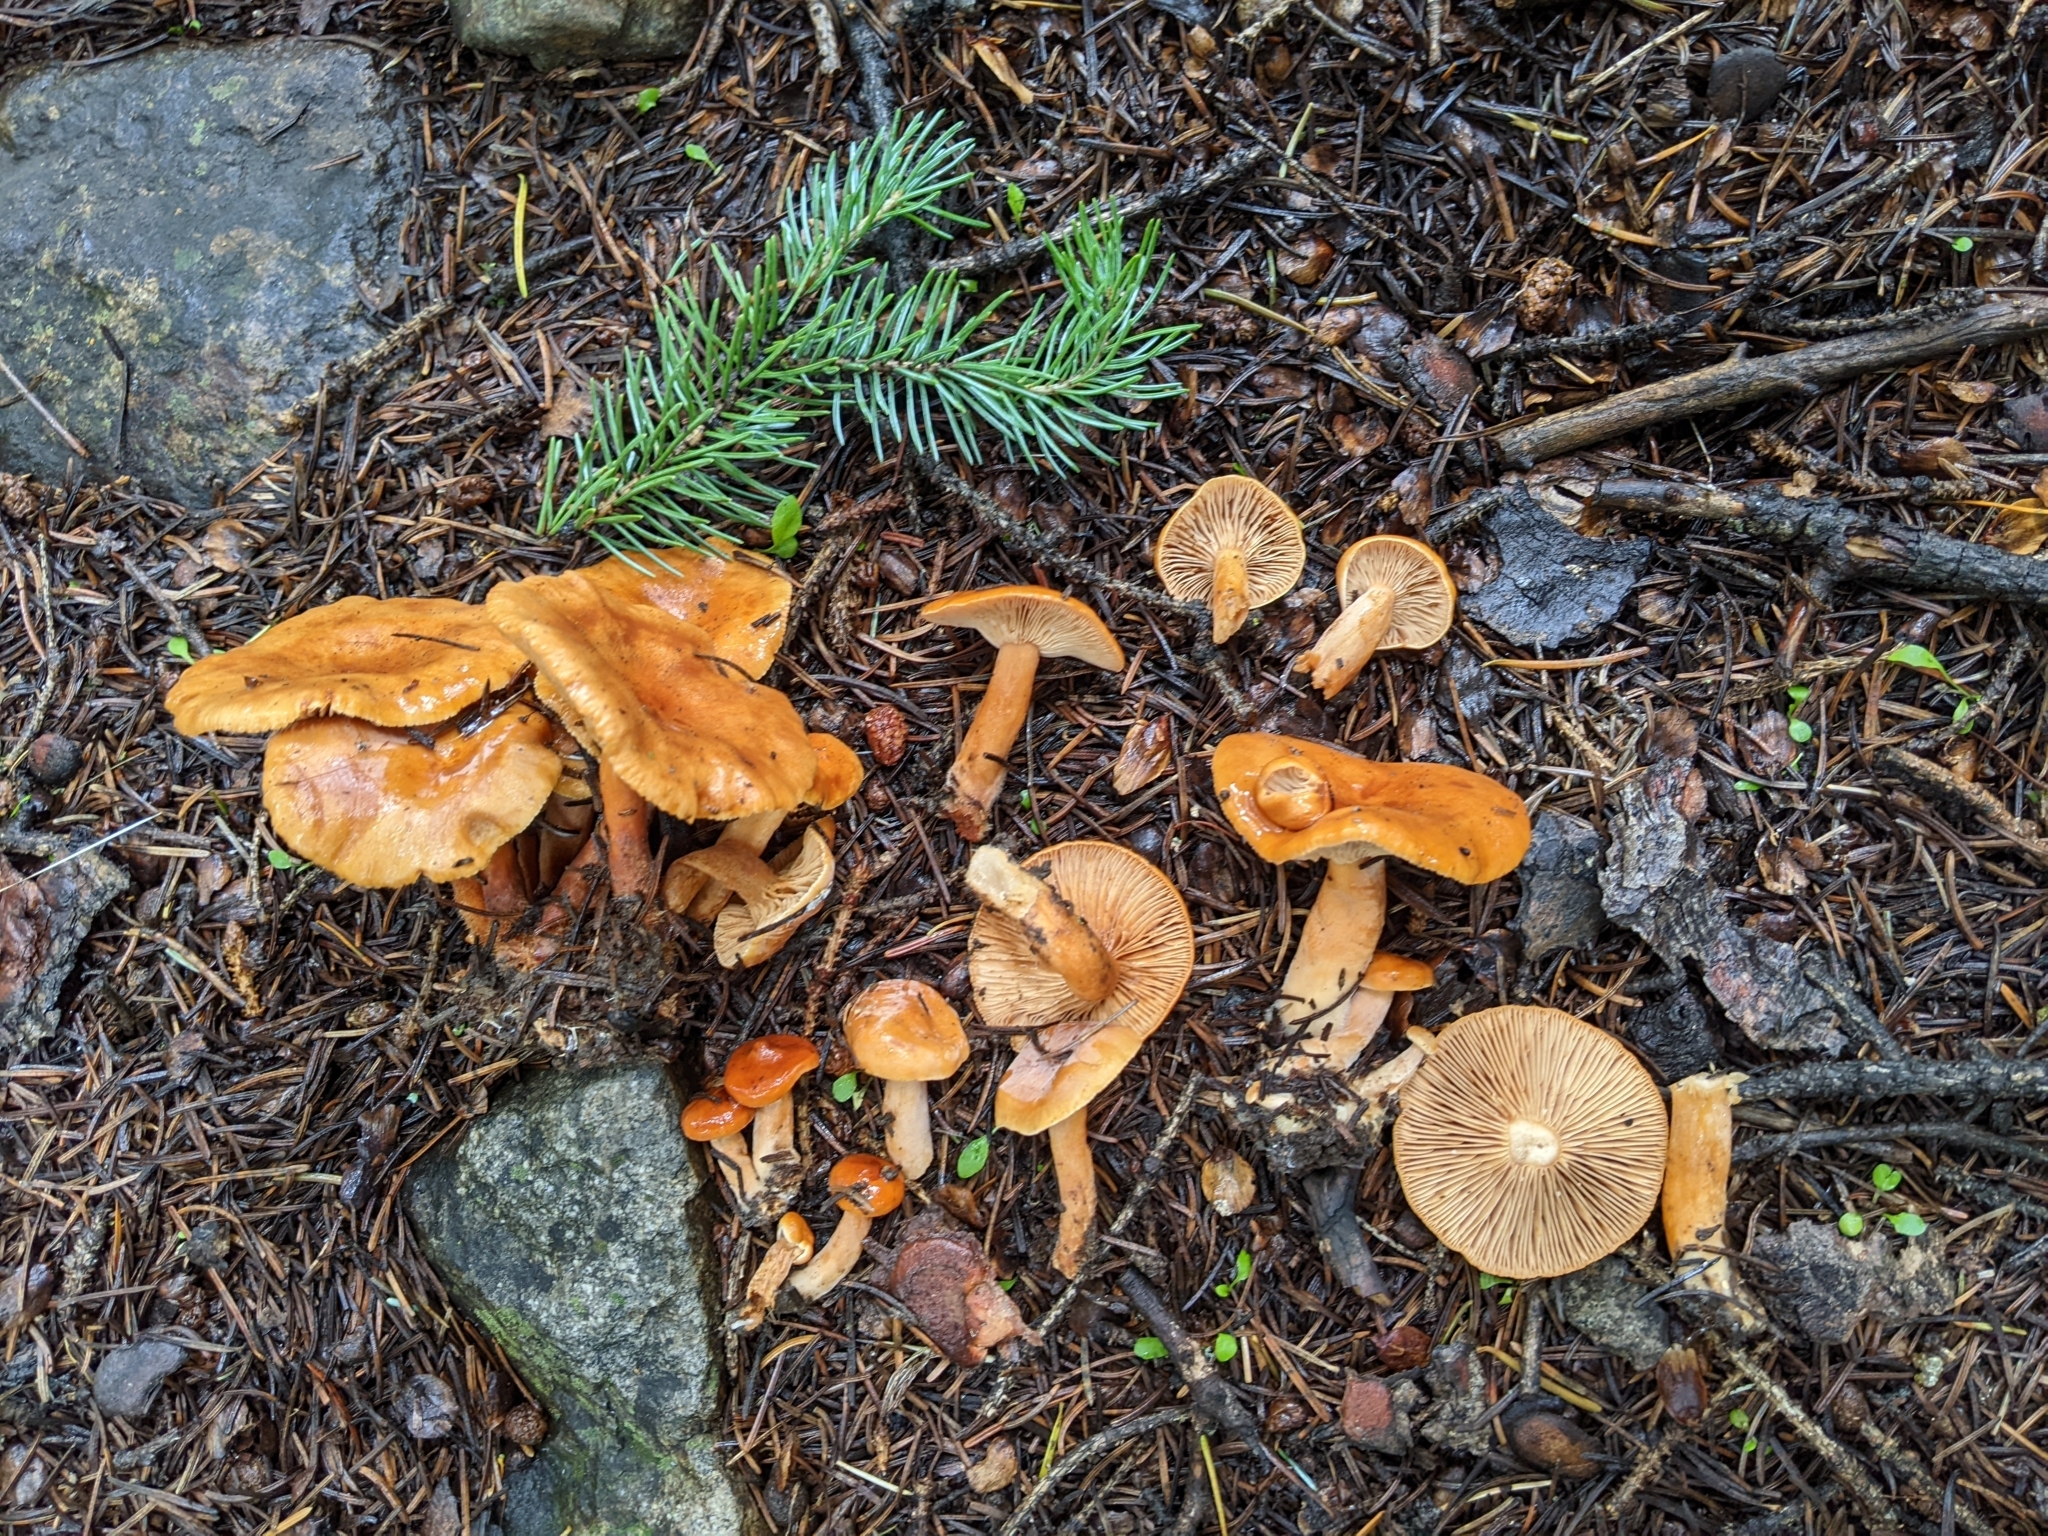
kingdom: Fungi
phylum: Basidiomycota
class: Agaricomycetes
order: Russulales
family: Russulaceae
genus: Lactarius
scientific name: Lactarius hepaticus
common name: Liver milkcap
